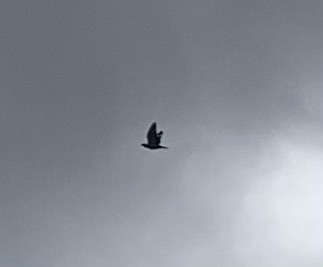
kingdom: Animalia
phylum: Chordata
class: Aves
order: Columbiformes
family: Columbidae
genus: Columba
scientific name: Columba livia
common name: Rock pigeon
